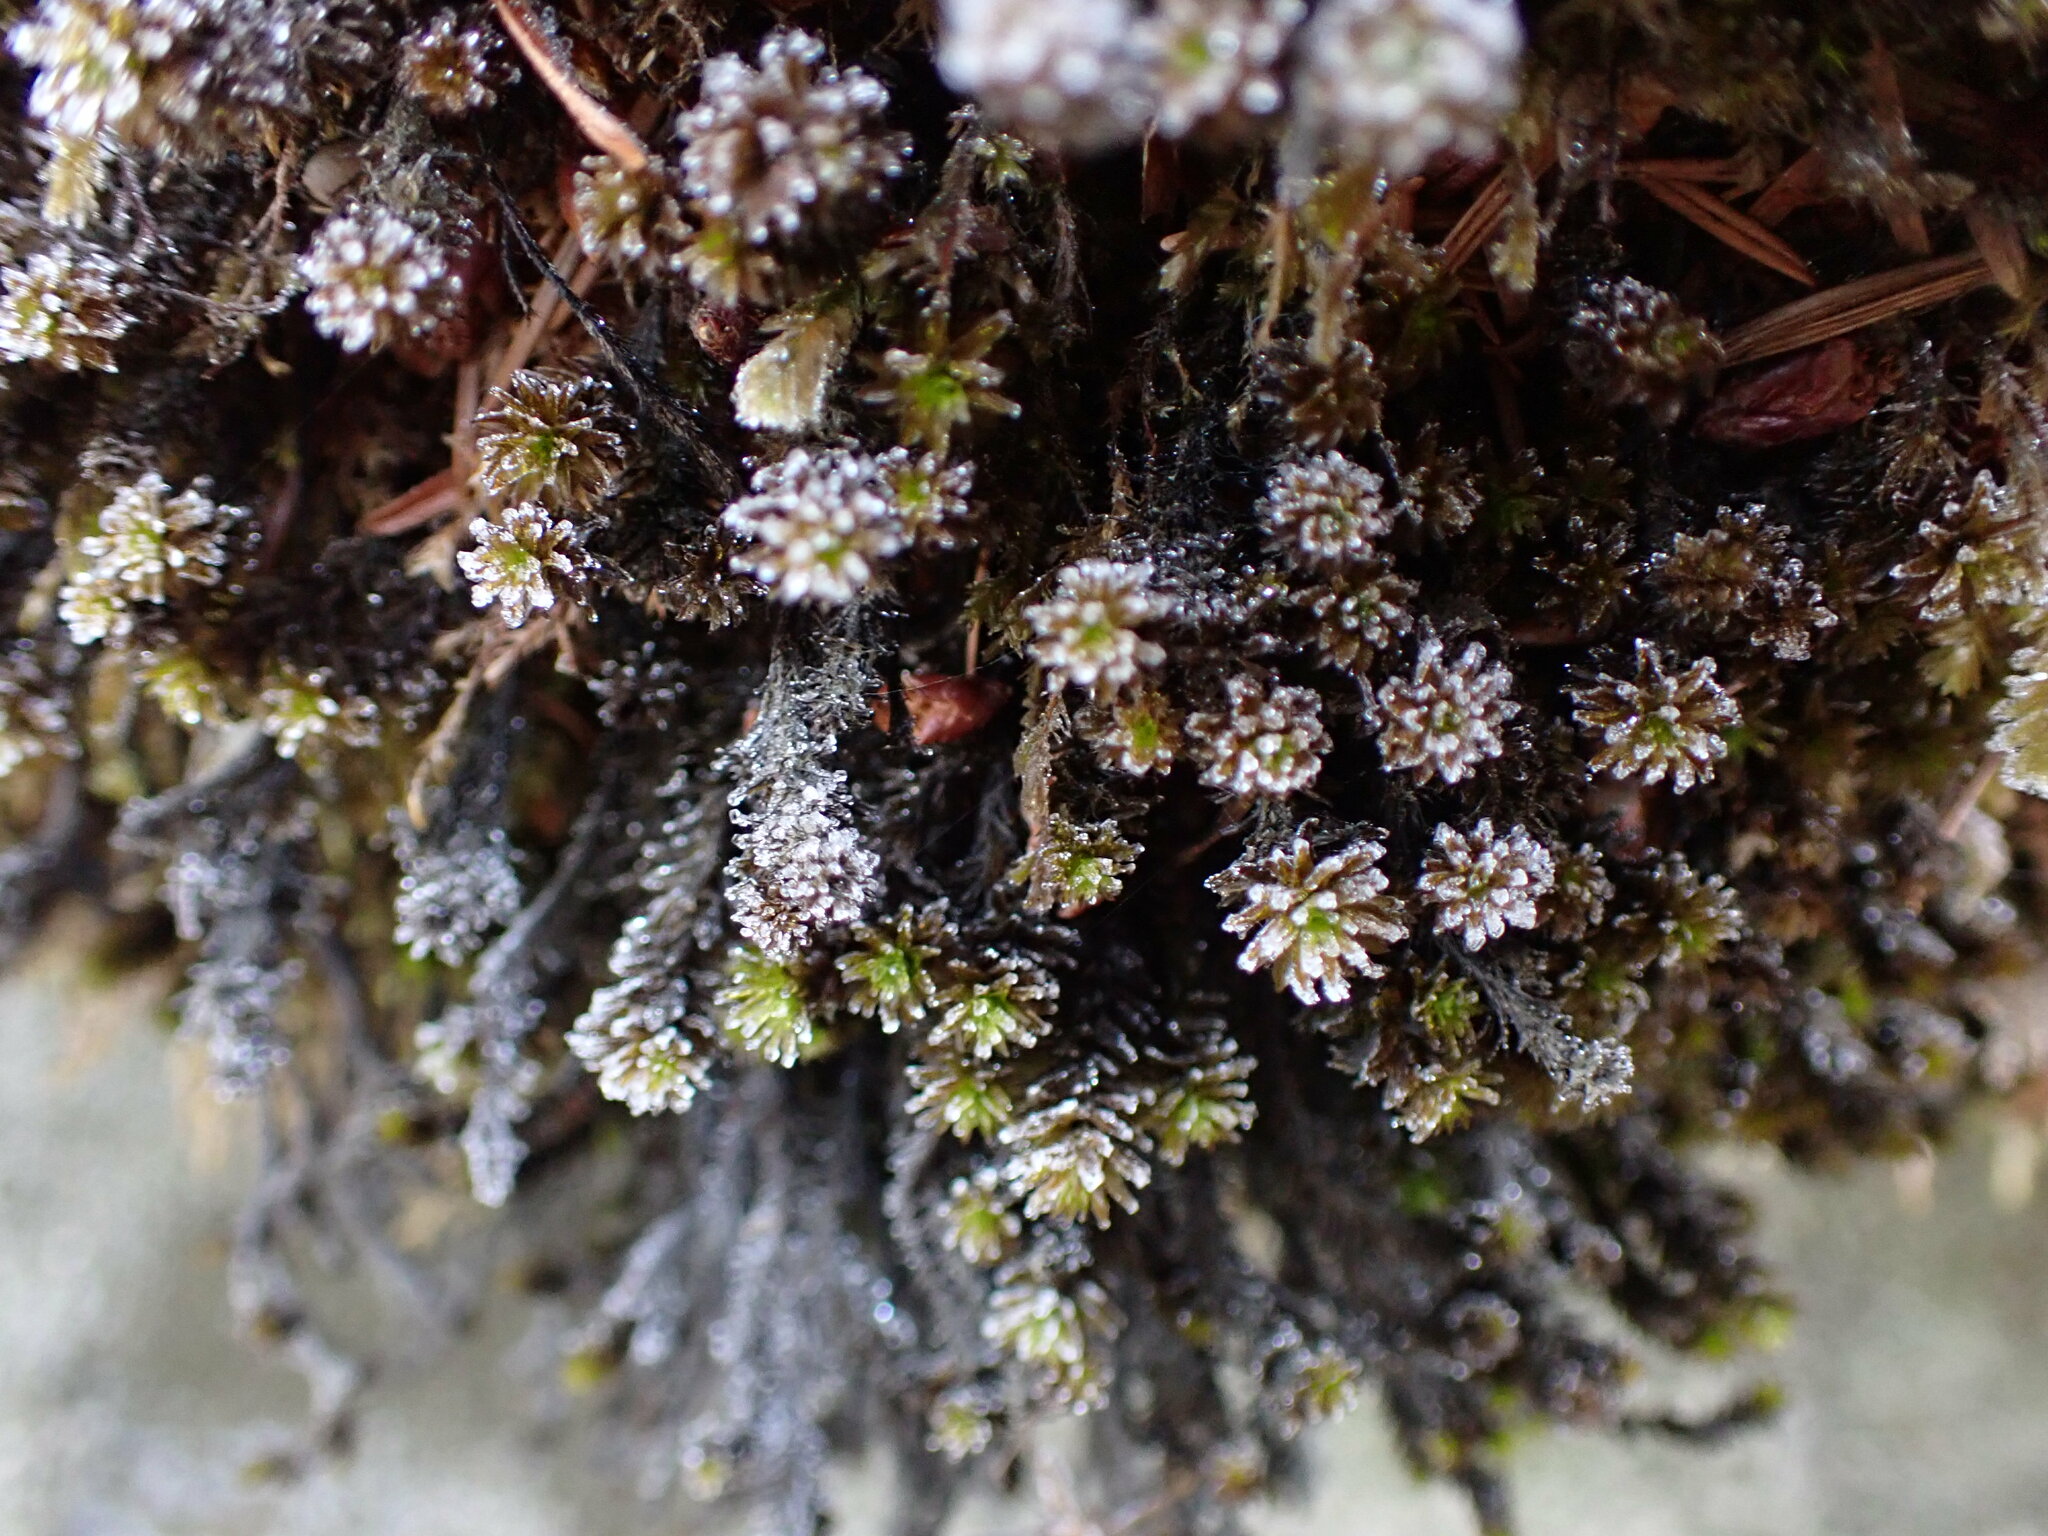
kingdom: Plantae
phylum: Bryophyta
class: Bryopsida
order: Scouleriales
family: Scouleriaceae
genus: Scouleria
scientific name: Scouleria aquatica
